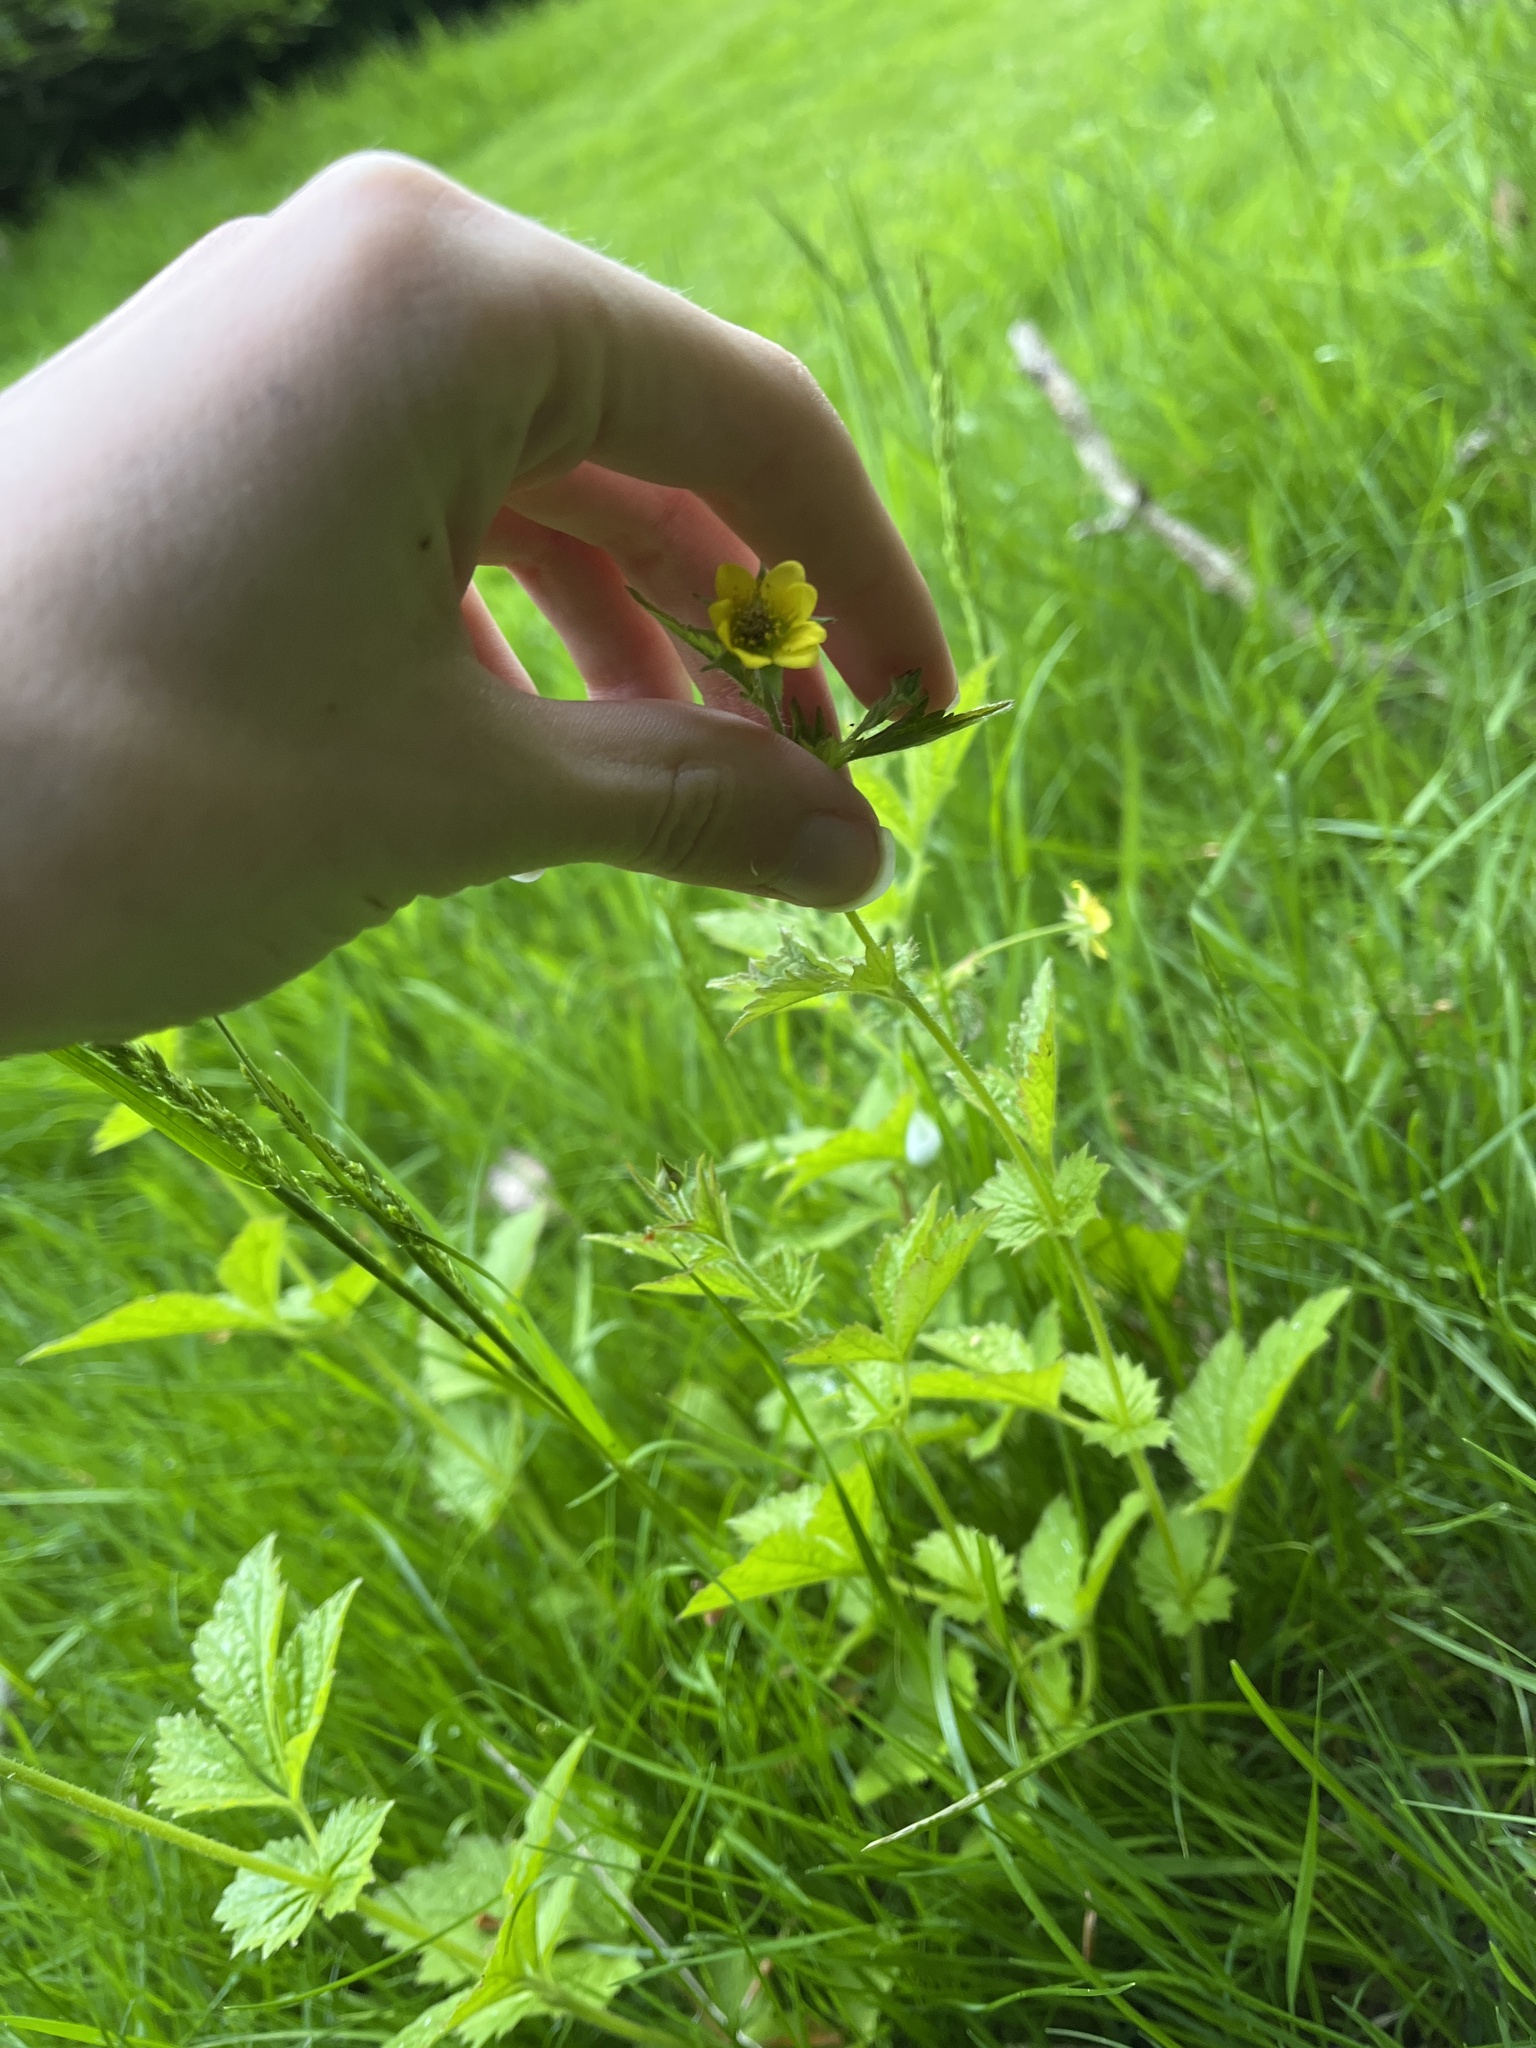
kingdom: Plantae
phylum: Tracheophyta
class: Magnoliopsida
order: Rosales
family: Rosaceae
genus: Geum
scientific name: Geum urbanum
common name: Wood avens
